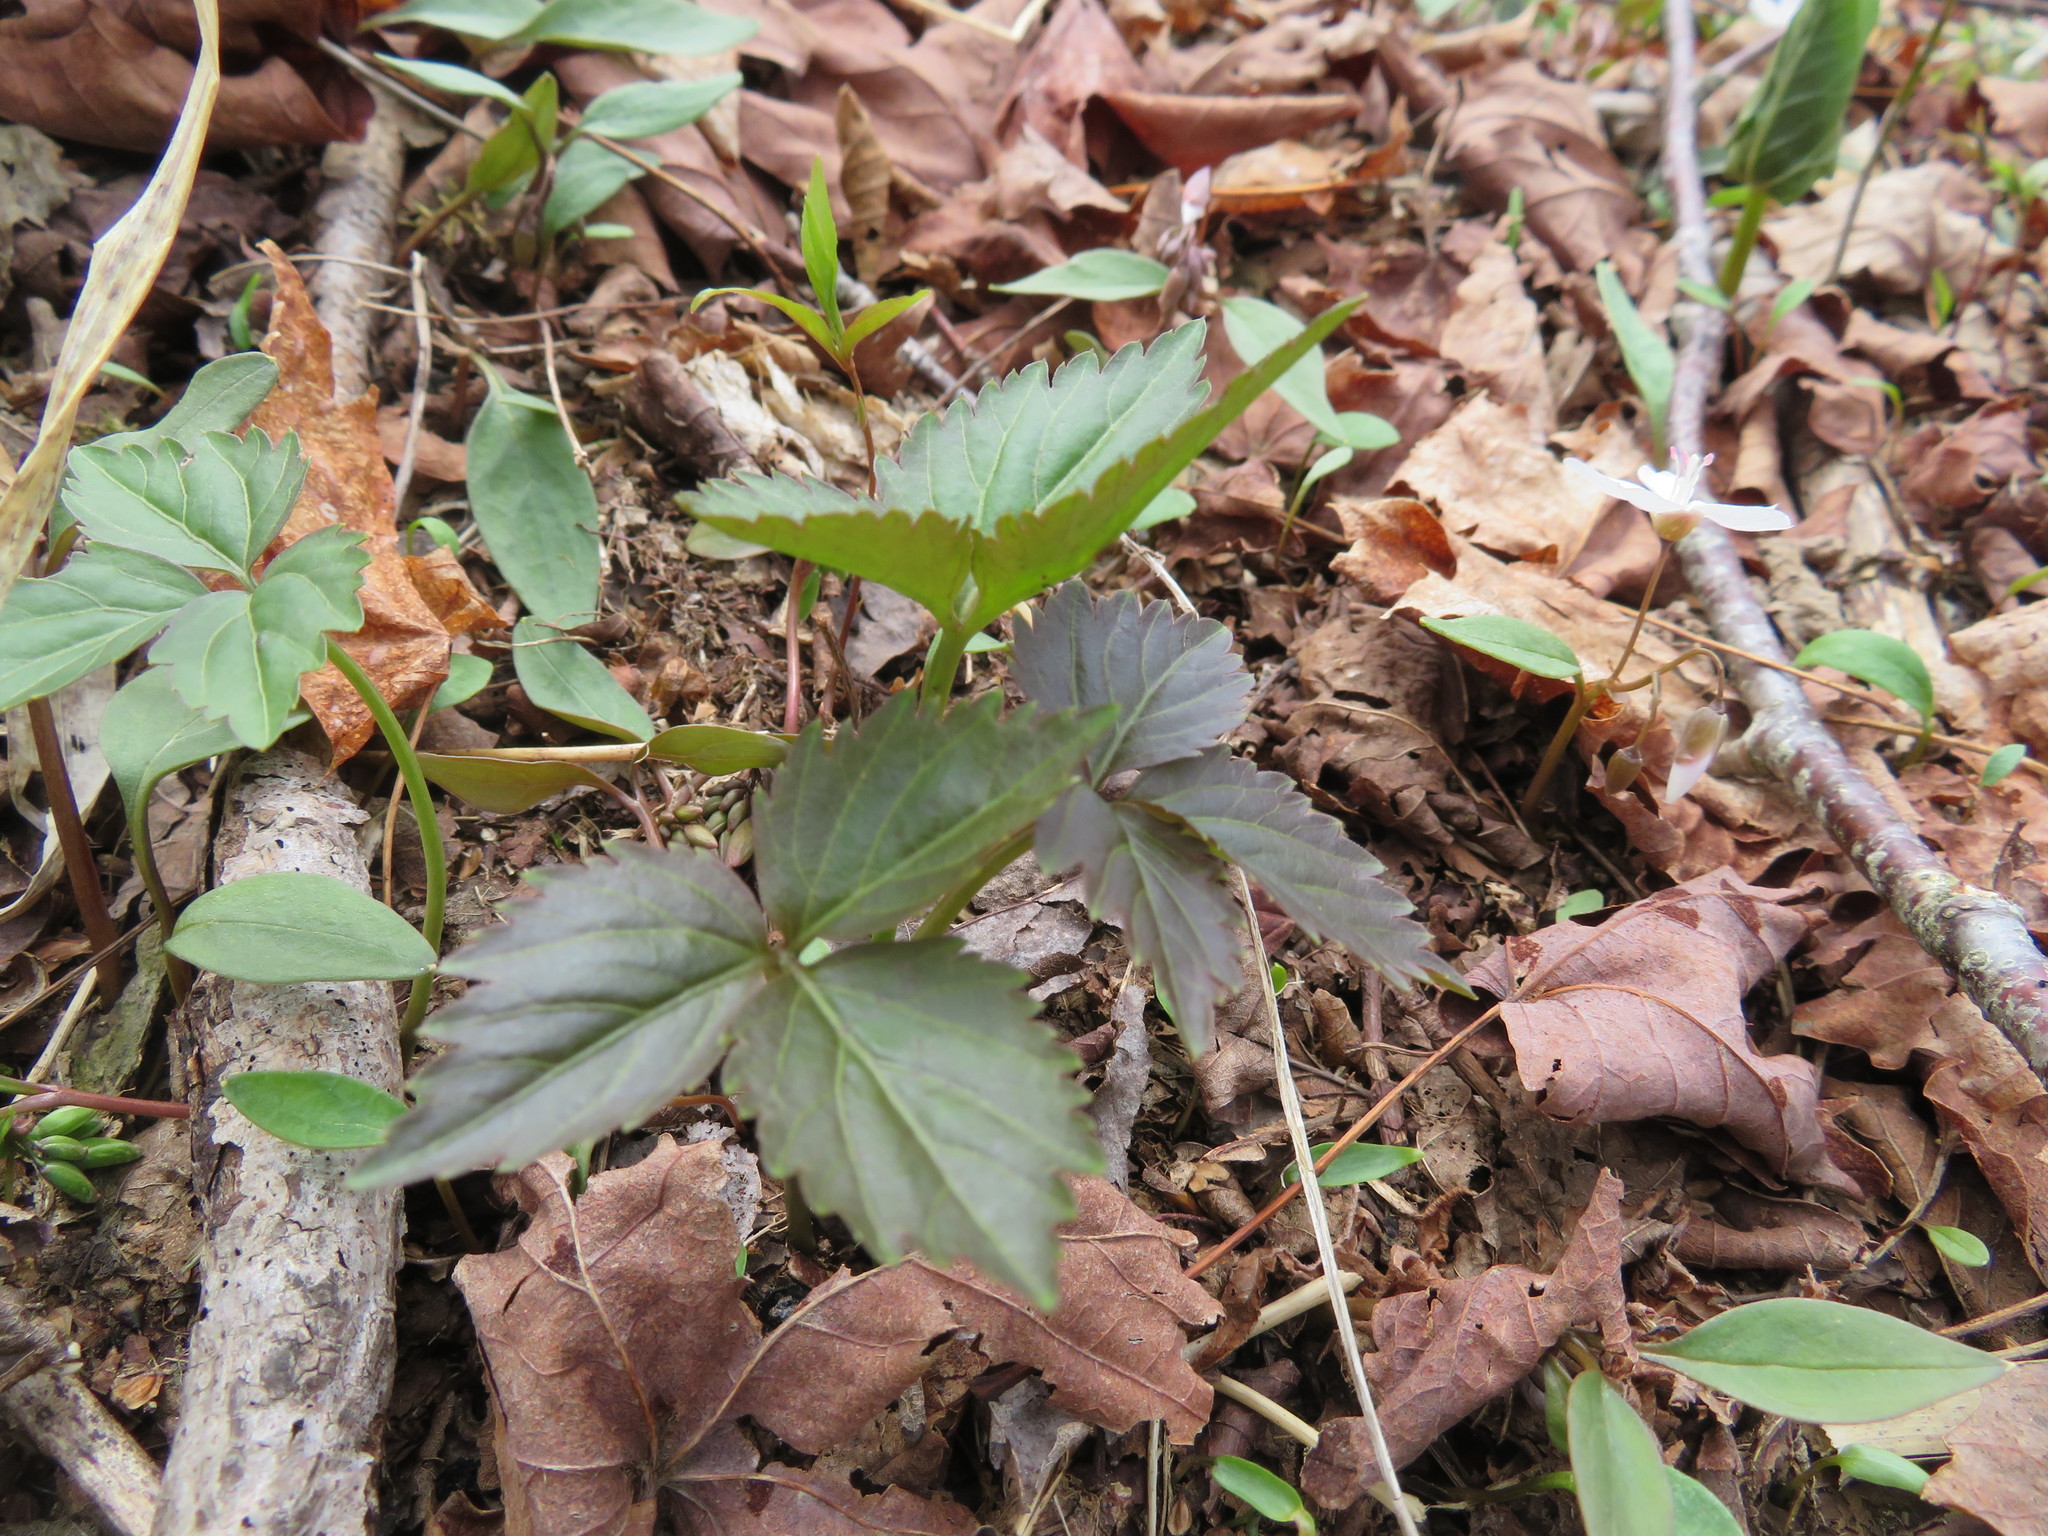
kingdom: Plantae
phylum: Tracheophyta
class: Magnoliopsida
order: Brassicales
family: Brassicaceae
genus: Cardamine
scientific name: Cardamine diphylla
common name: Broad-leaved toothwort
